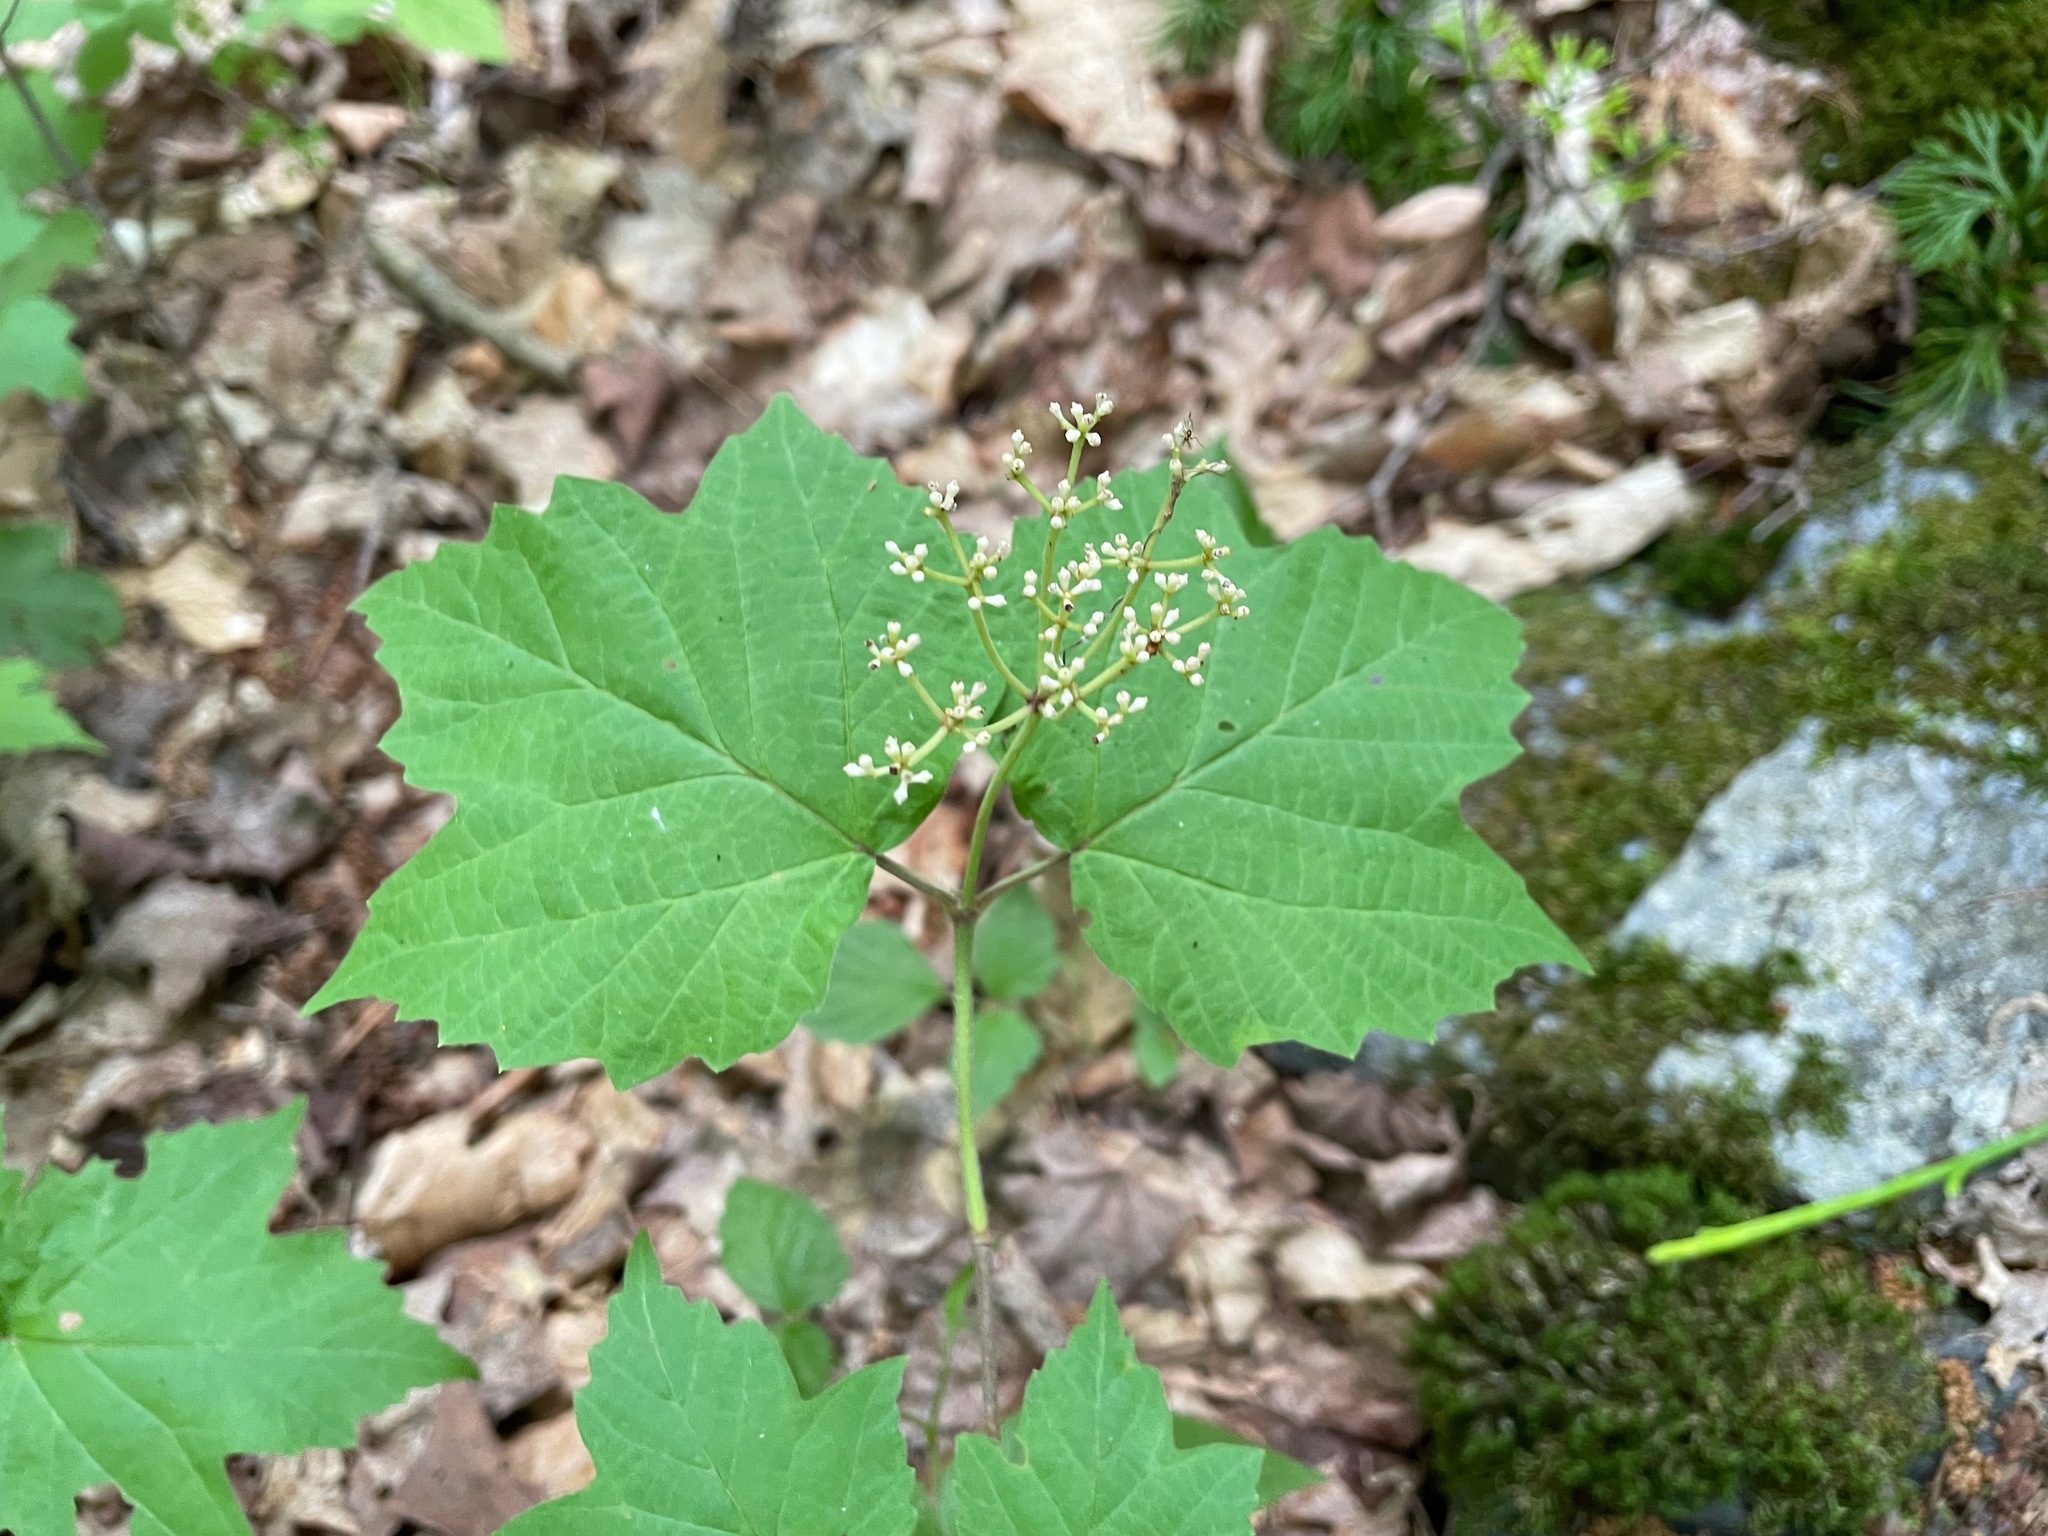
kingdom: Plantae
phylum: Tracheophyta
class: Magnoliopsida
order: Dipsacales
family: Viburnaceae
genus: Viburnum
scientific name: Viburnum acerifolium
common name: Dockmackie
